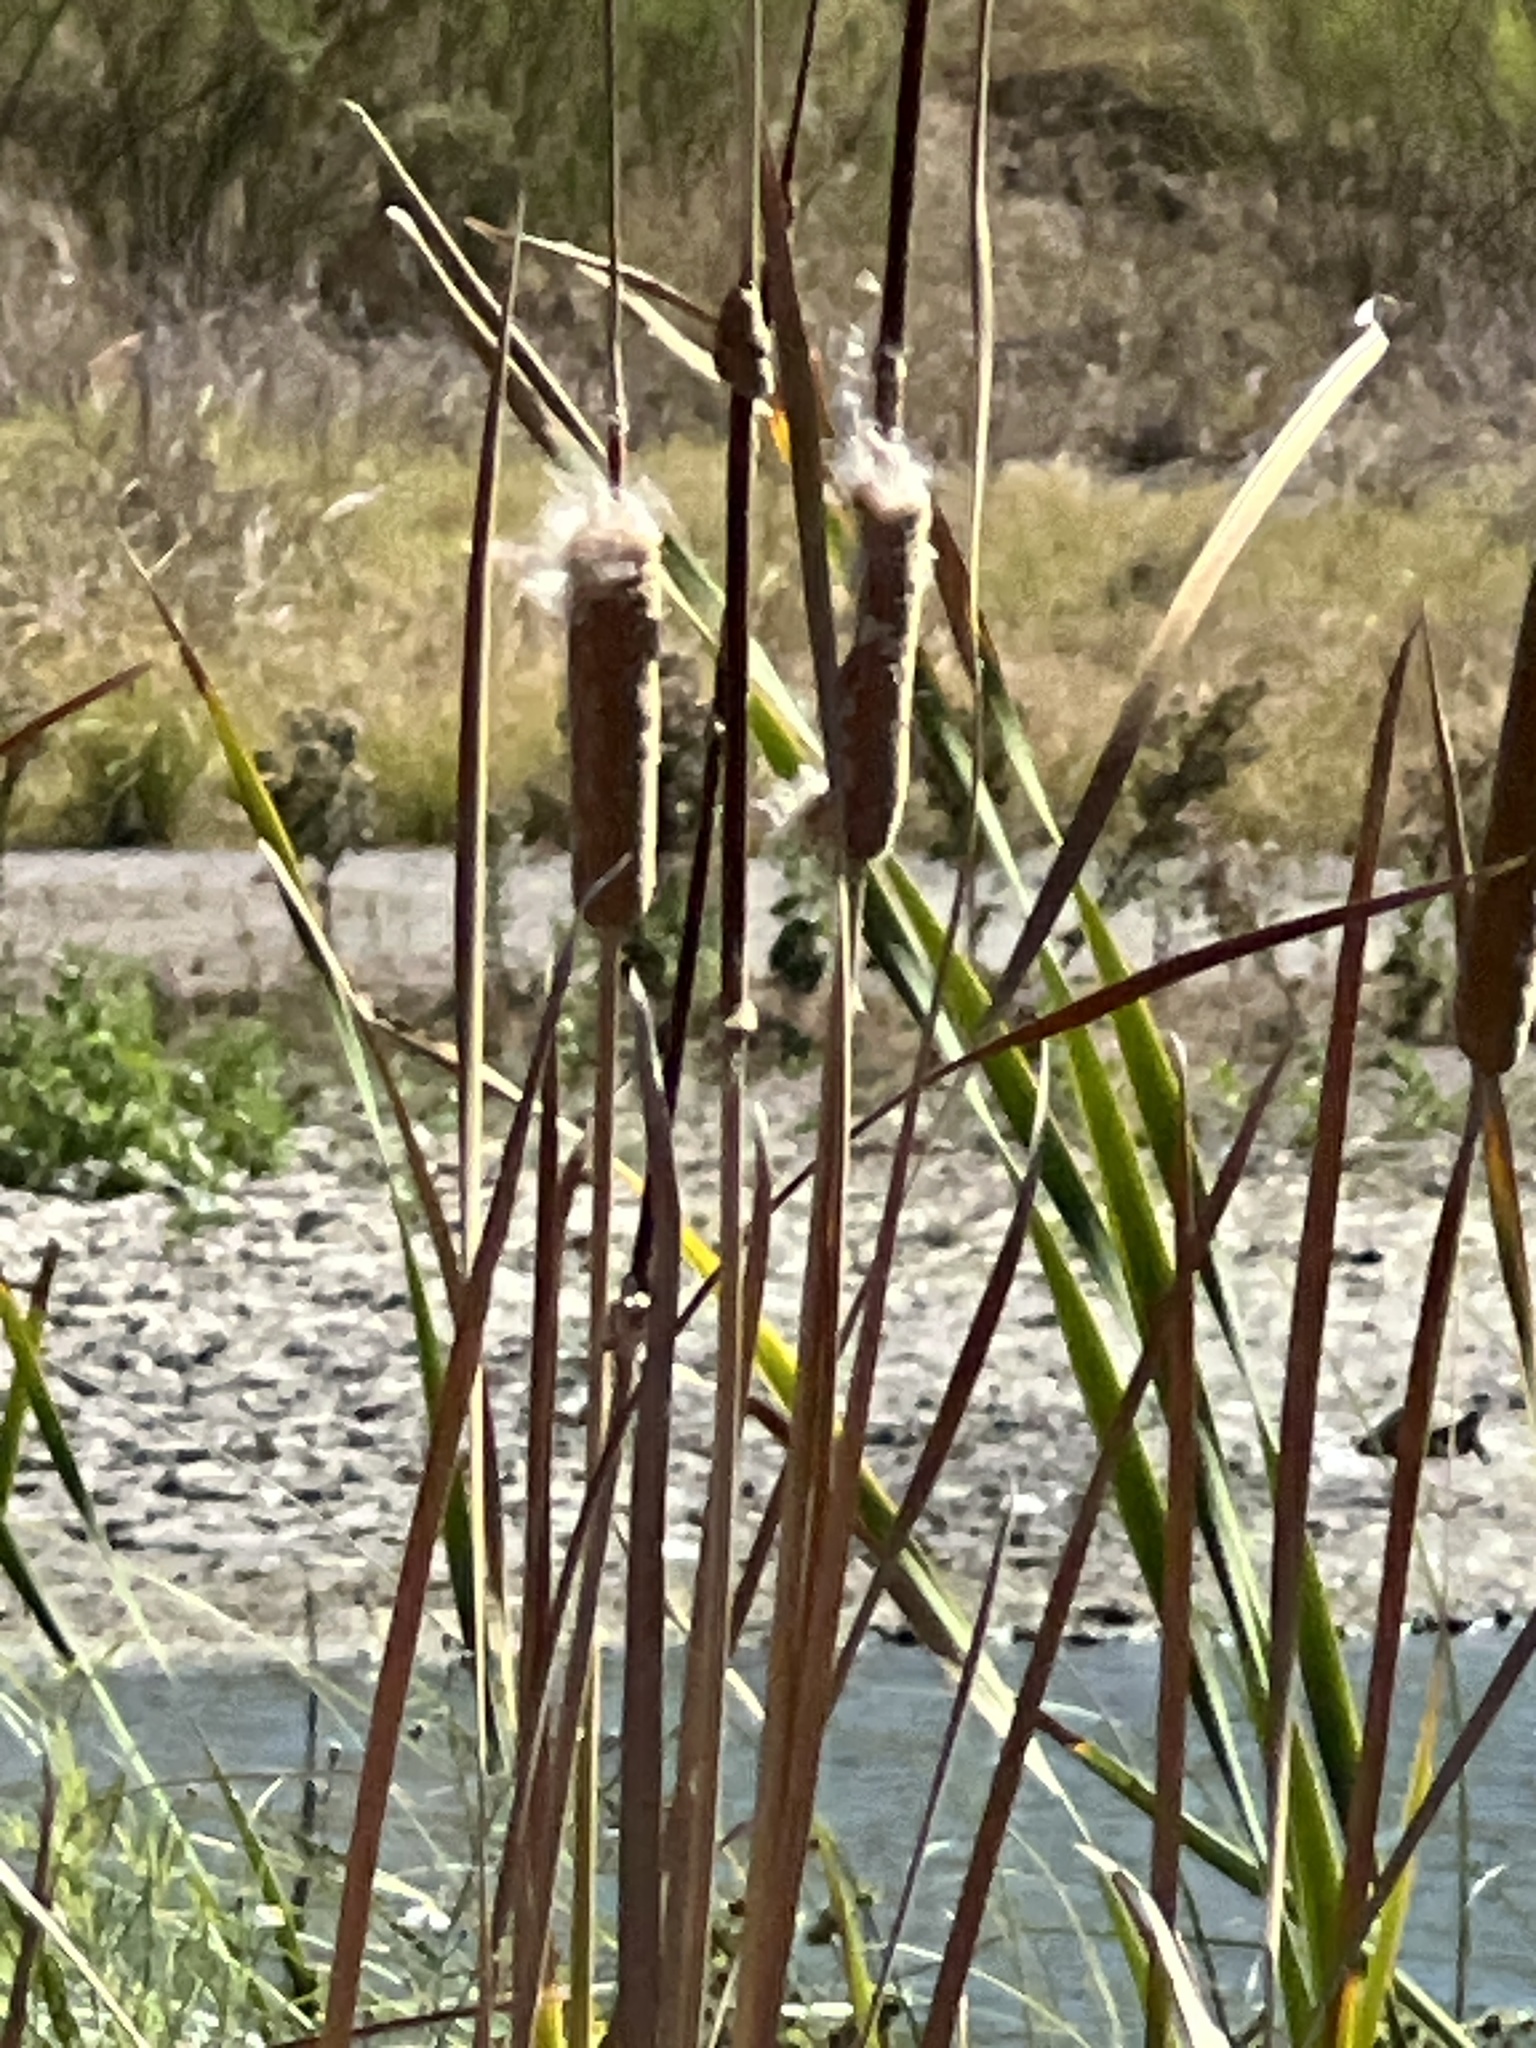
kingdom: Plantae
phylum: Tracheophyta
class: Liliopsida
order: Poales
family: Typhaceae
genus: Typha
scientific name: Typha domingensis
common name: Southern cattail
